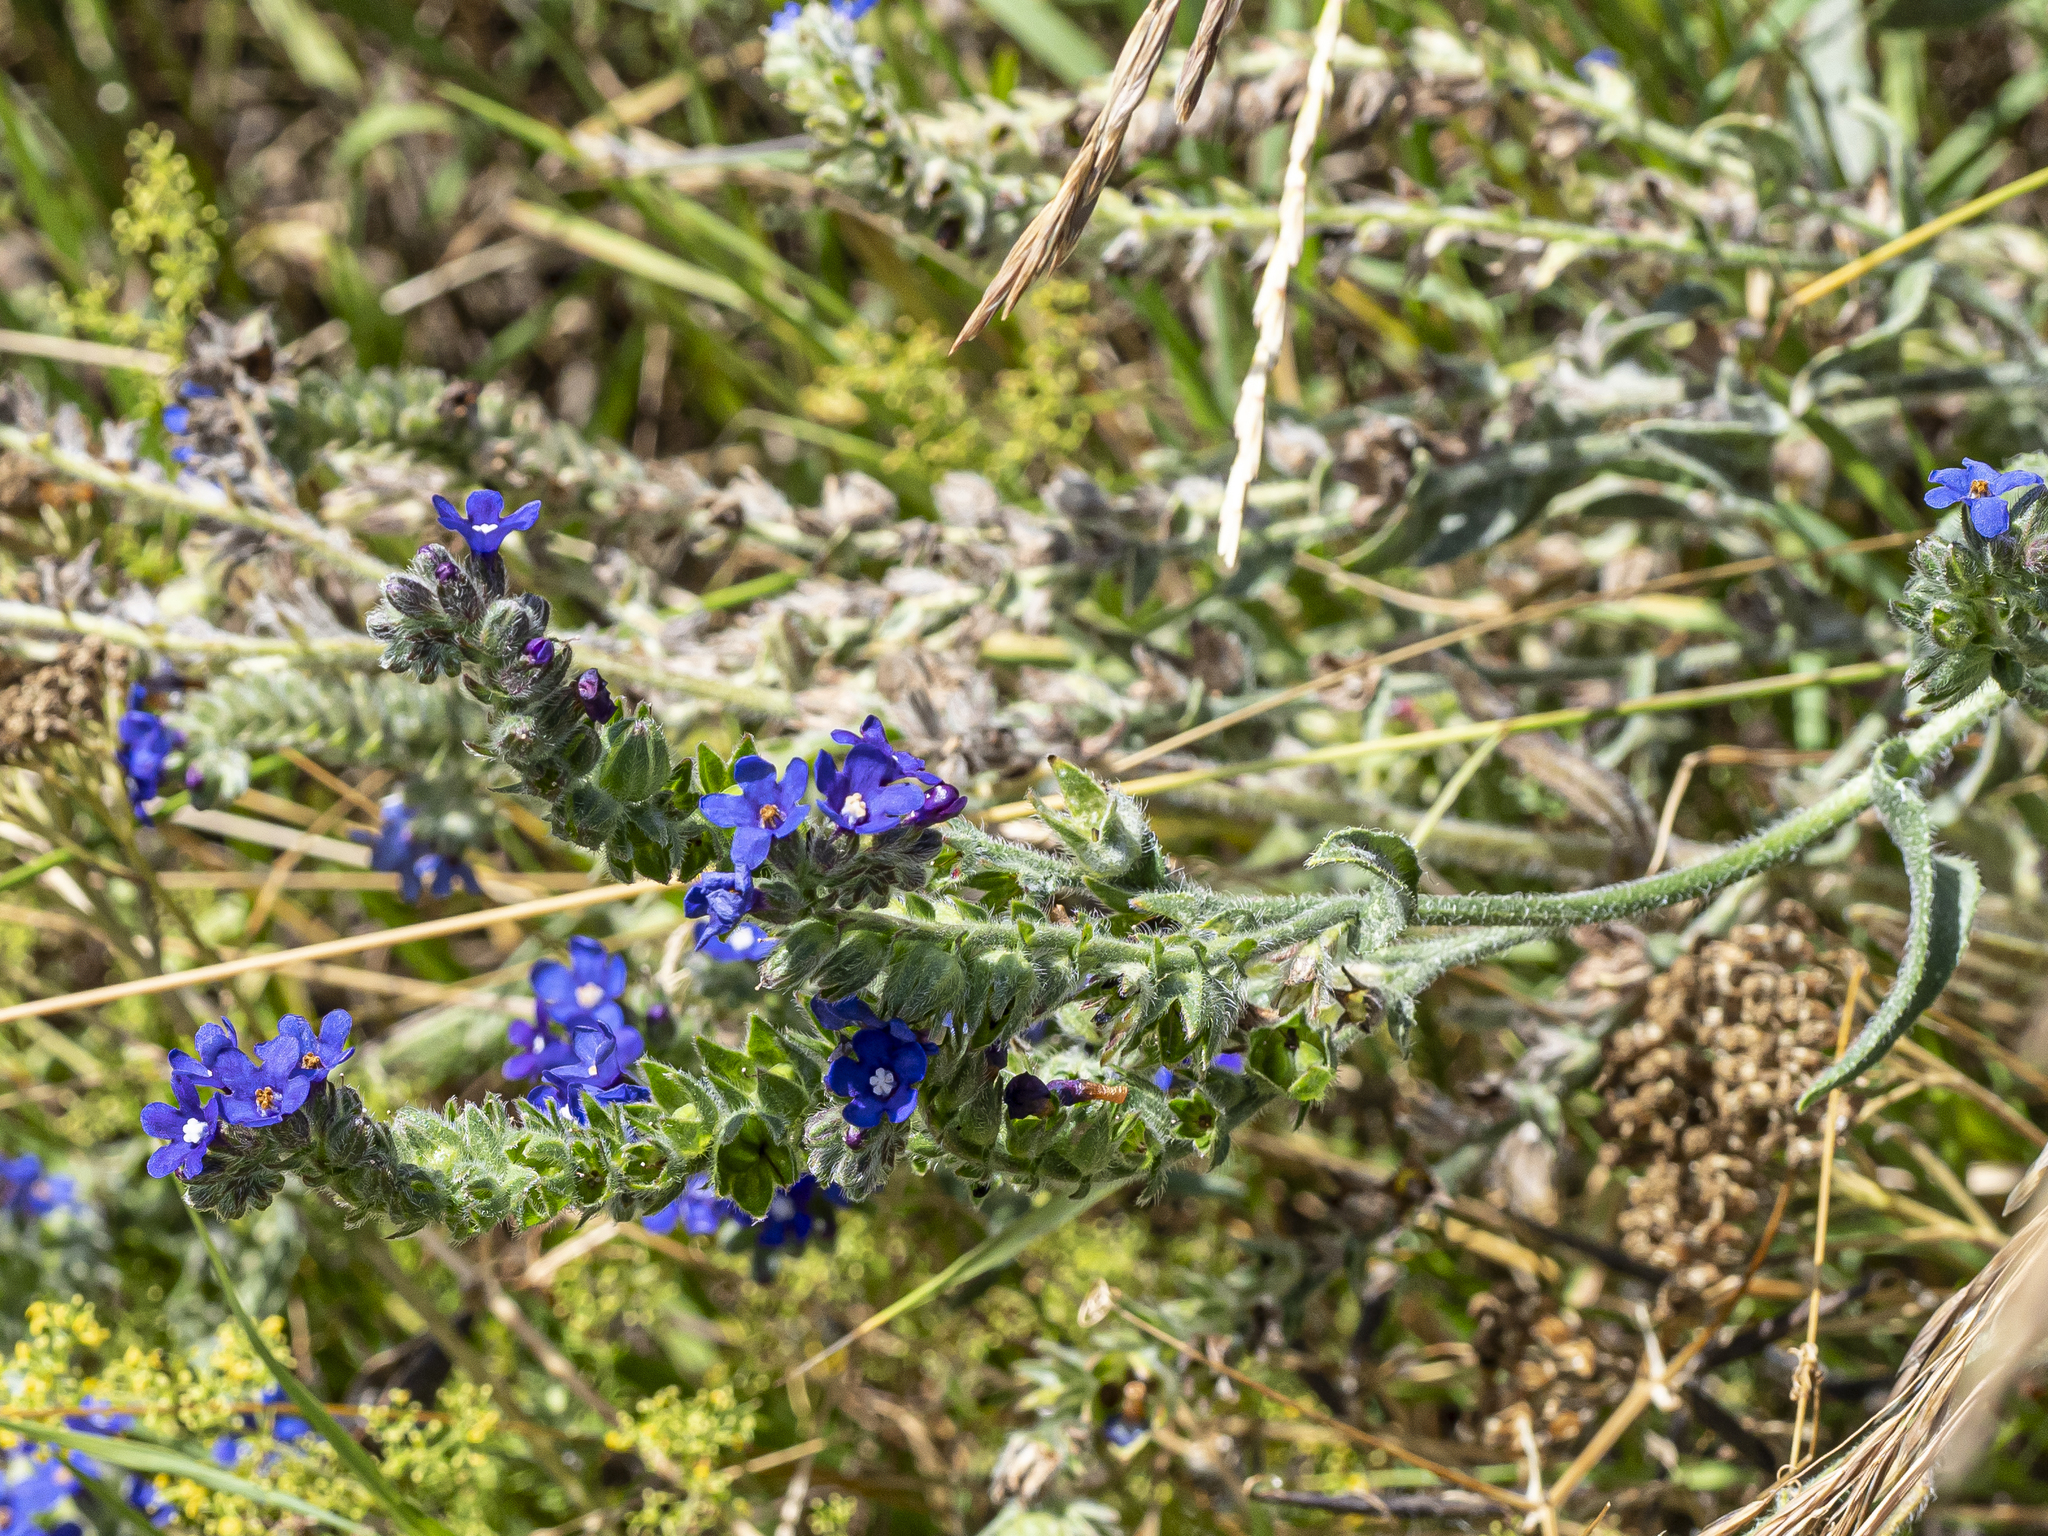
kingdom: Plantae
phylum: Tracheophyta
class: Magnoliopsida
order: Boraginales
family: Boraginaceae
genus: Anchusa
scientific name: Anchusa officinalis
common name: Alkanet
